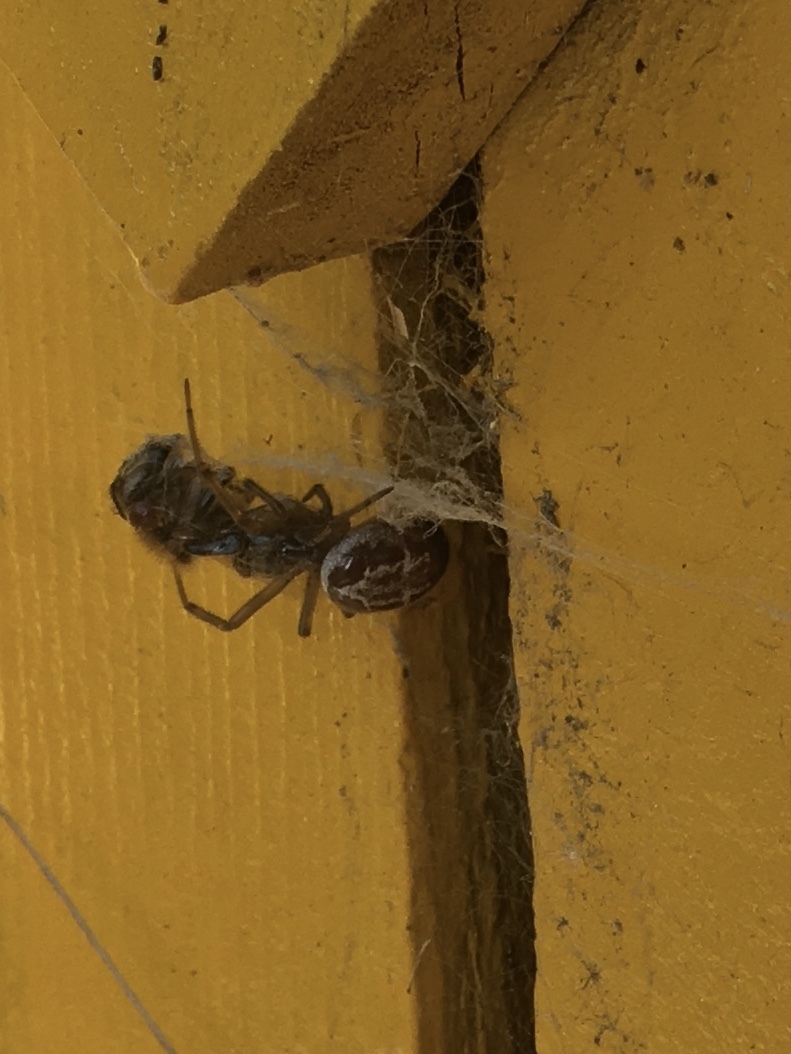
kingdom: Animalia
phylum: Arthropoda
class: Arachnida
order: Araneae
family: Theridiidae
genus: Steatoda
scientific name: Steatoda nobilis
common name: Cobweb weaver
